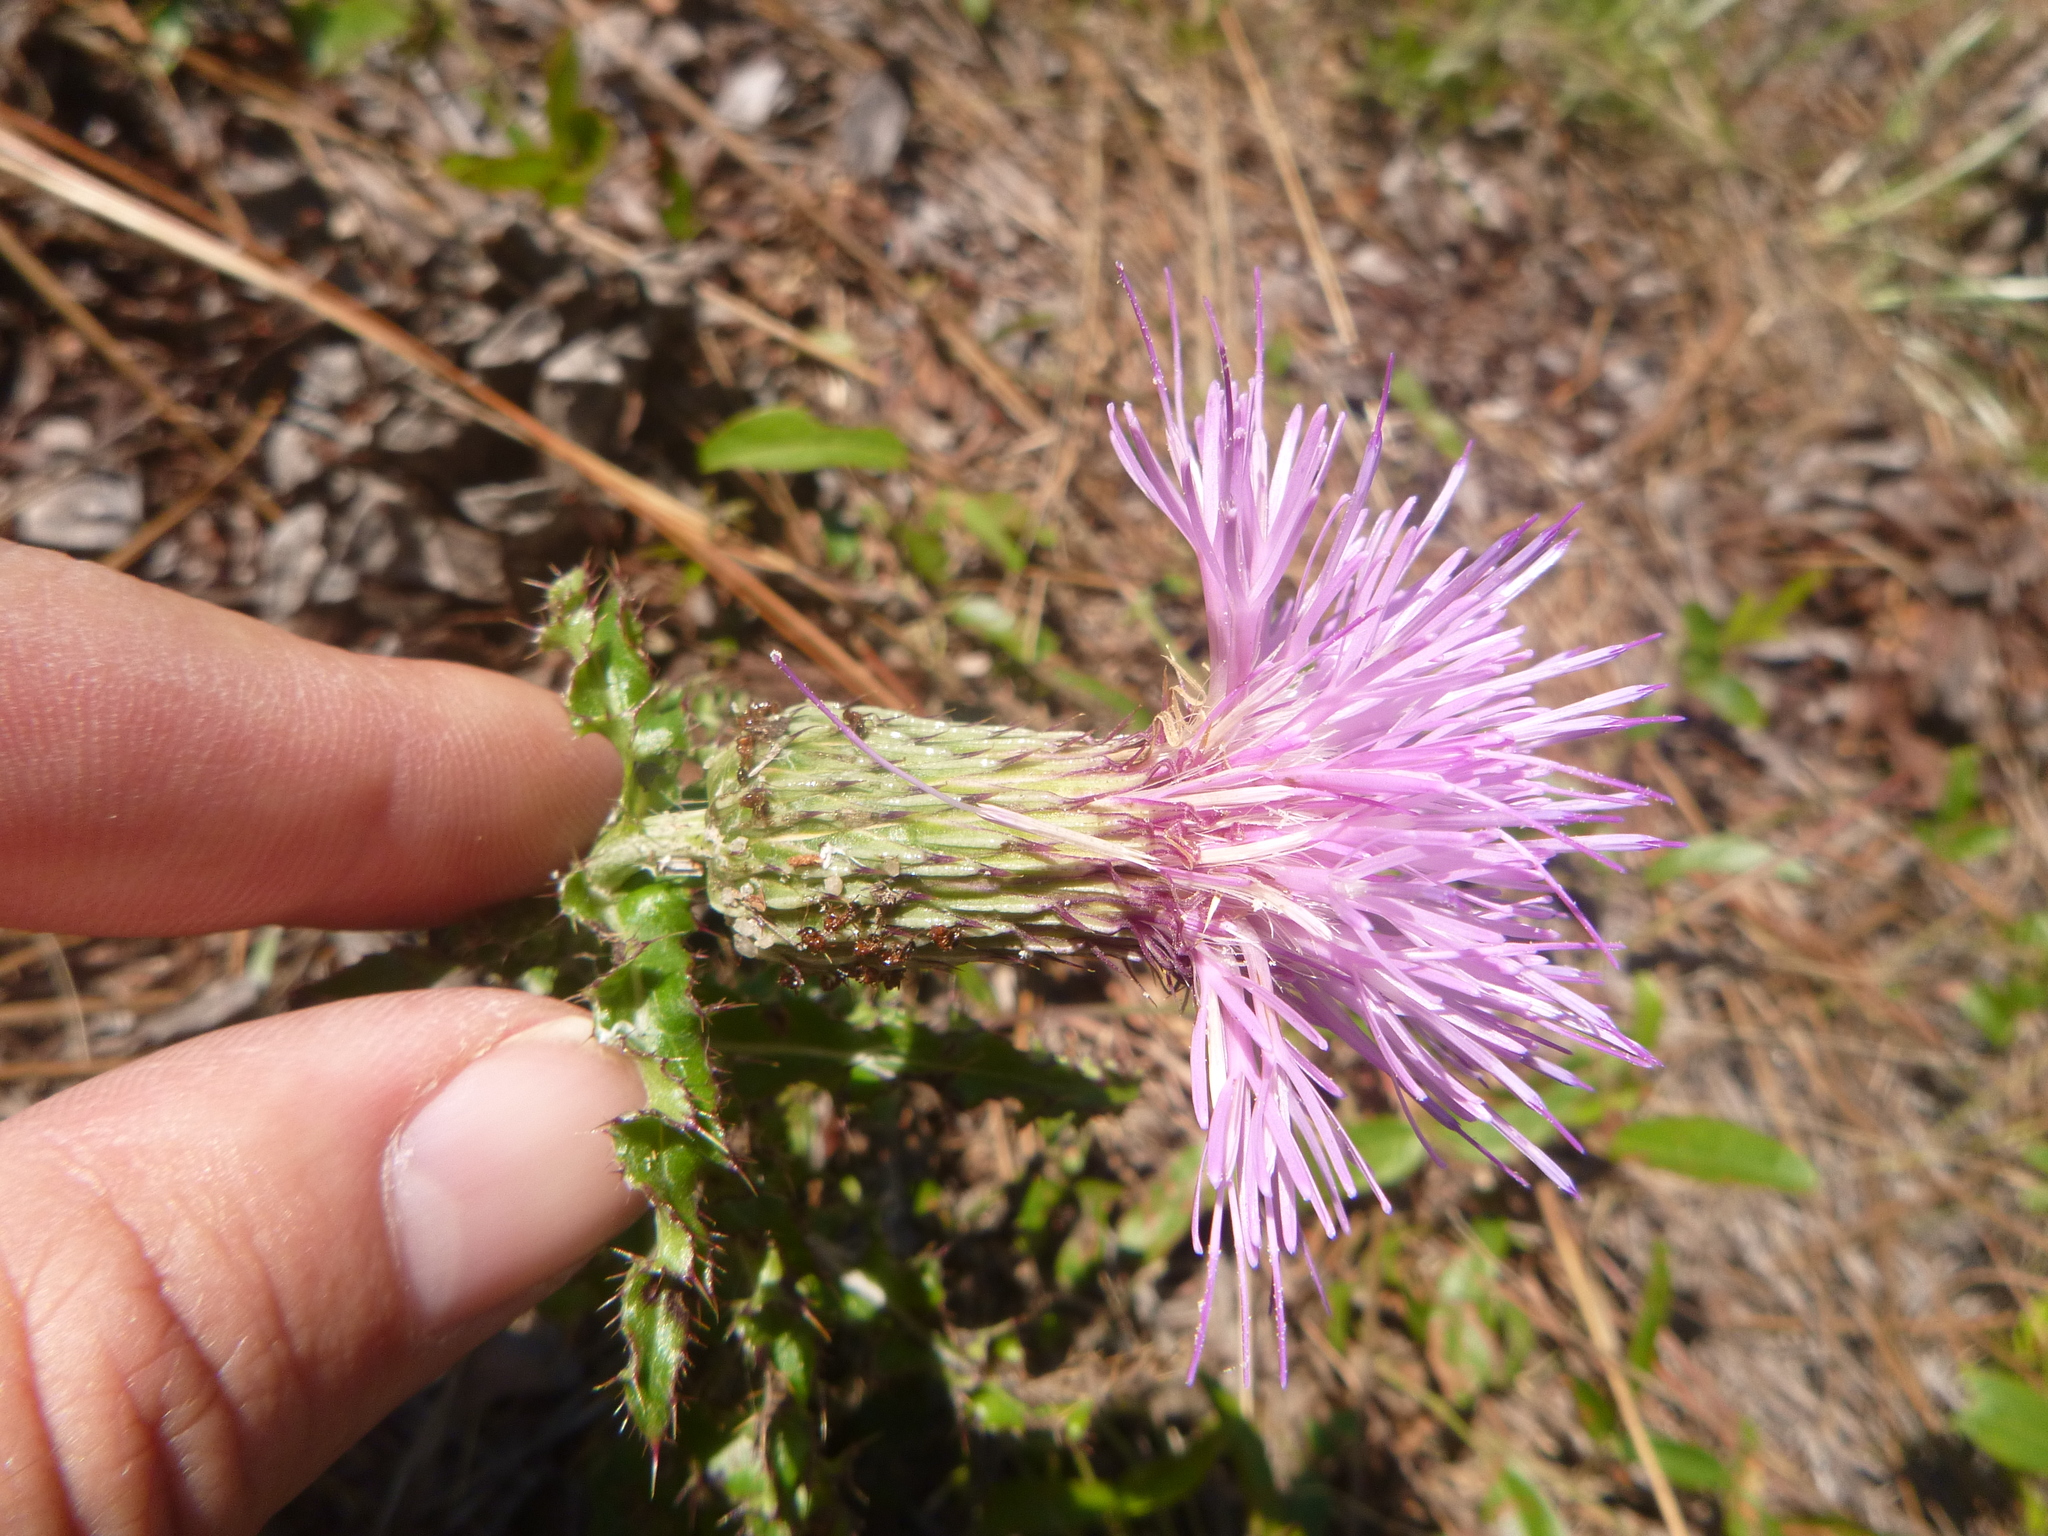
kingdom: Plantae
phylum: Tracheophyta
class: Magnoliopsida
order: Asterales
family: Asteraceae
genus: Cirsium
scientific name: Cirsium repandum
